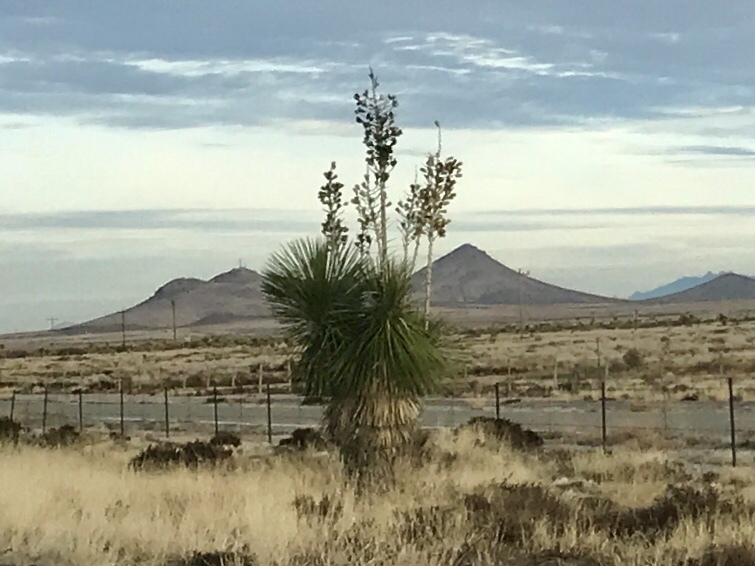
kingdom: Plantae
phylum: Tracheophyta
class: Liliopsida
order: Asparagales
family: Asparagaceae
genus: Yucca
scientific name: Yucca elata
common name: Palmella
